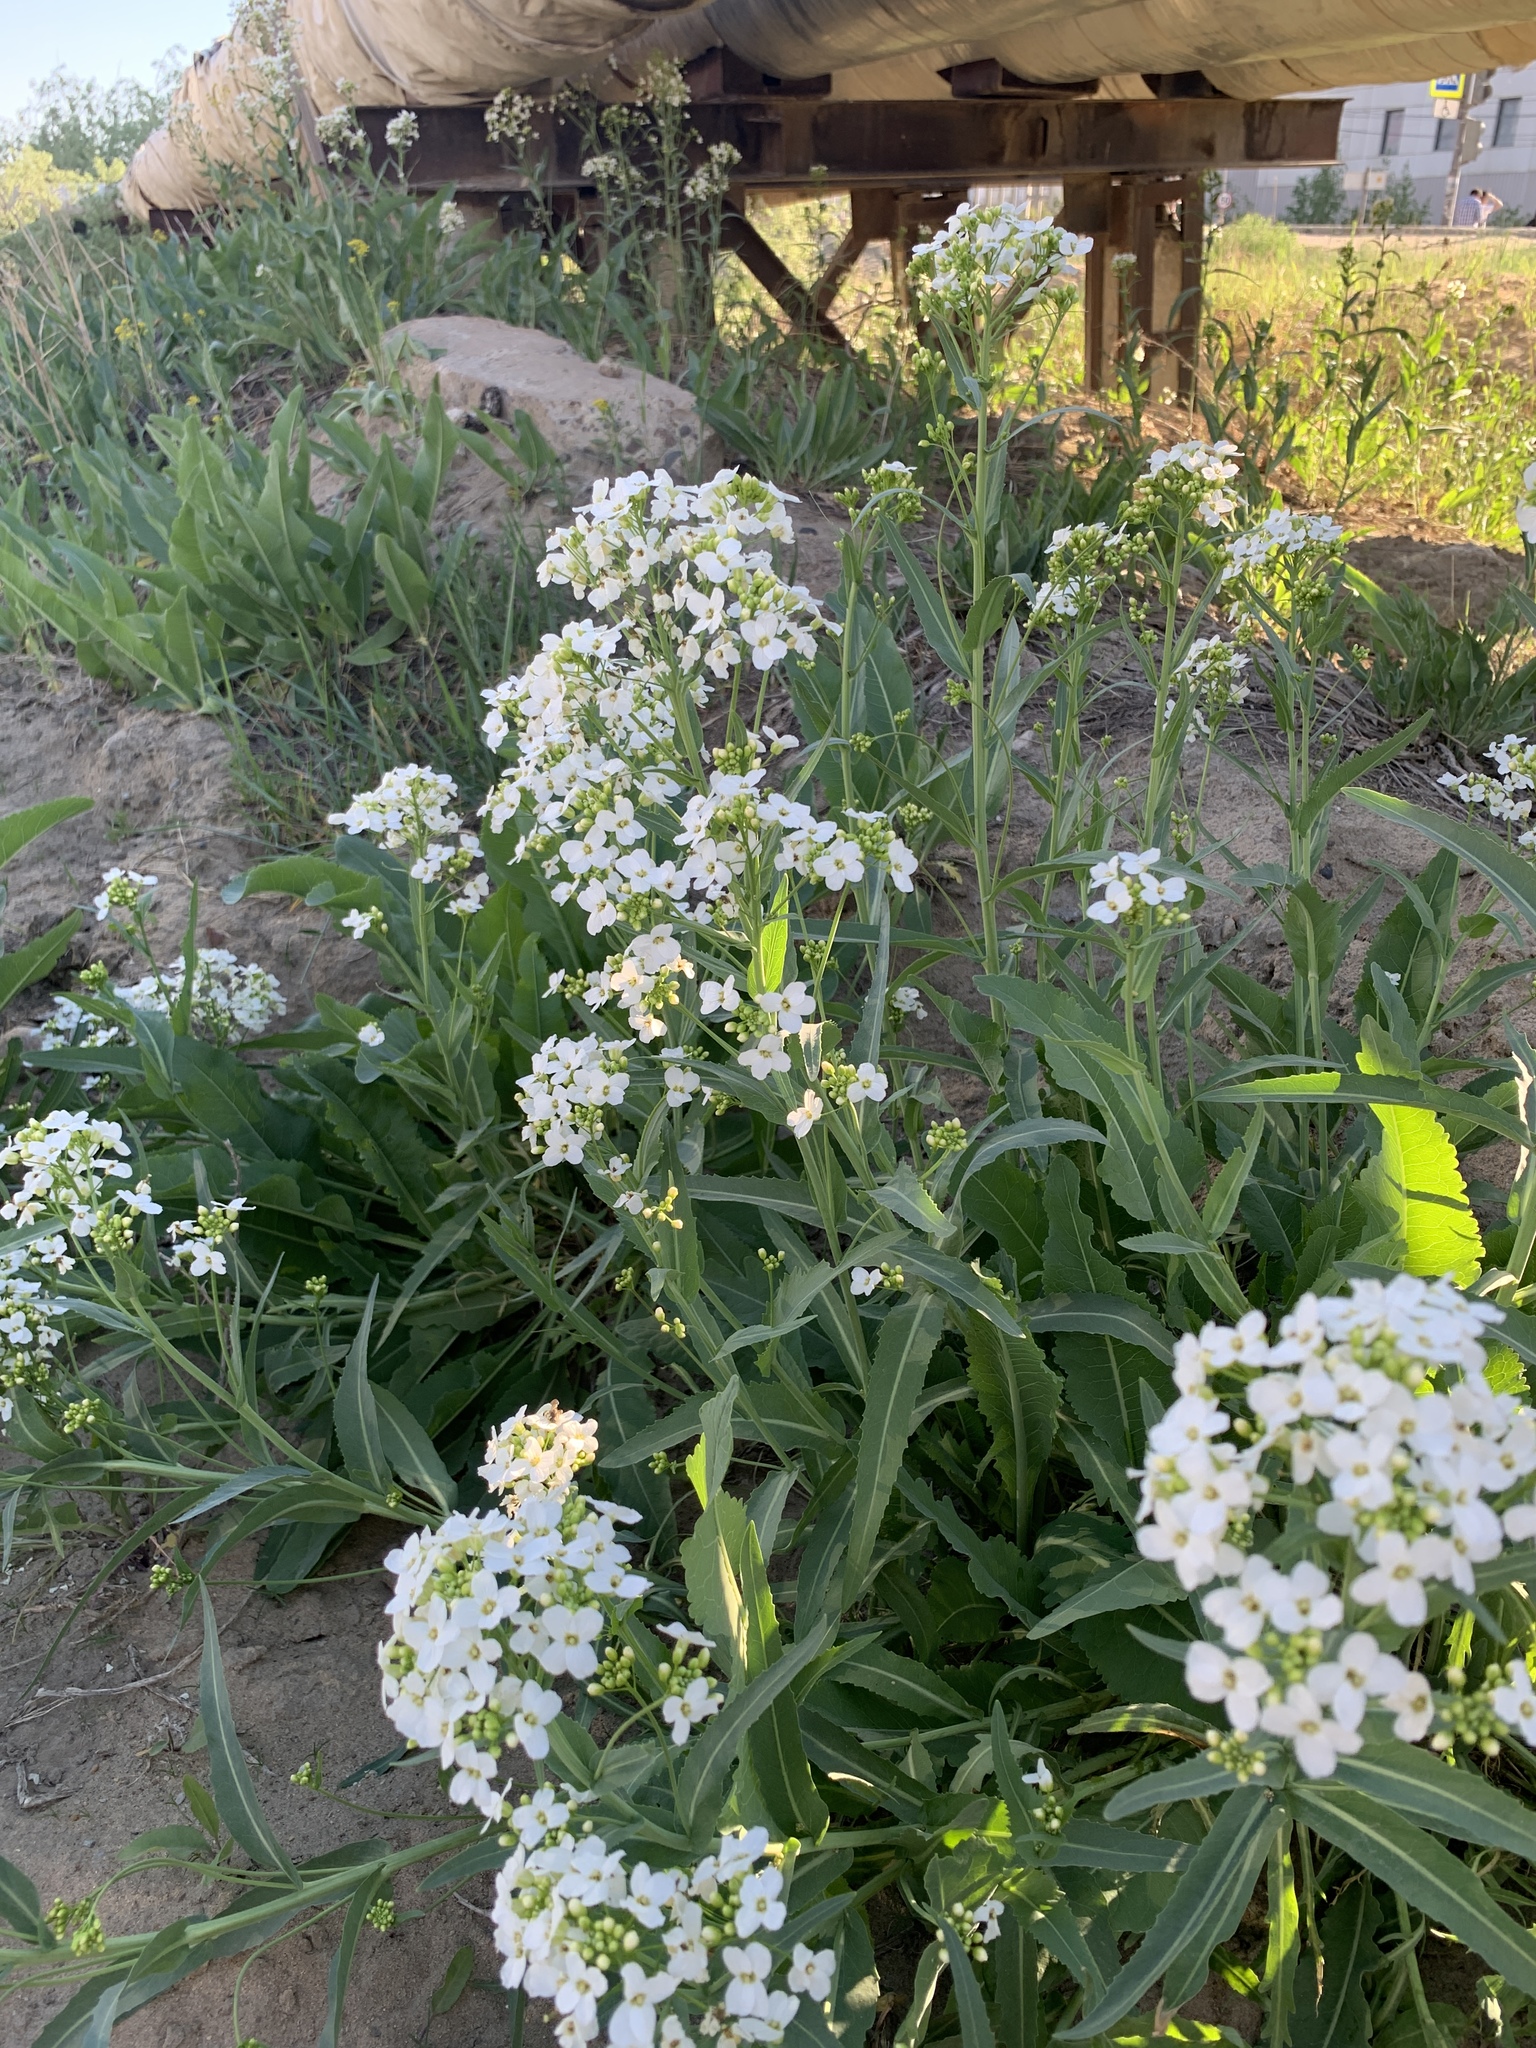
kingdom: Plantae
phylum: Tracheophyta
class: Magnoliopsida
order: Brassicales
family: Brassicaceae
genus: Armoracia
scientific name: Armoracia sisymbrioides
